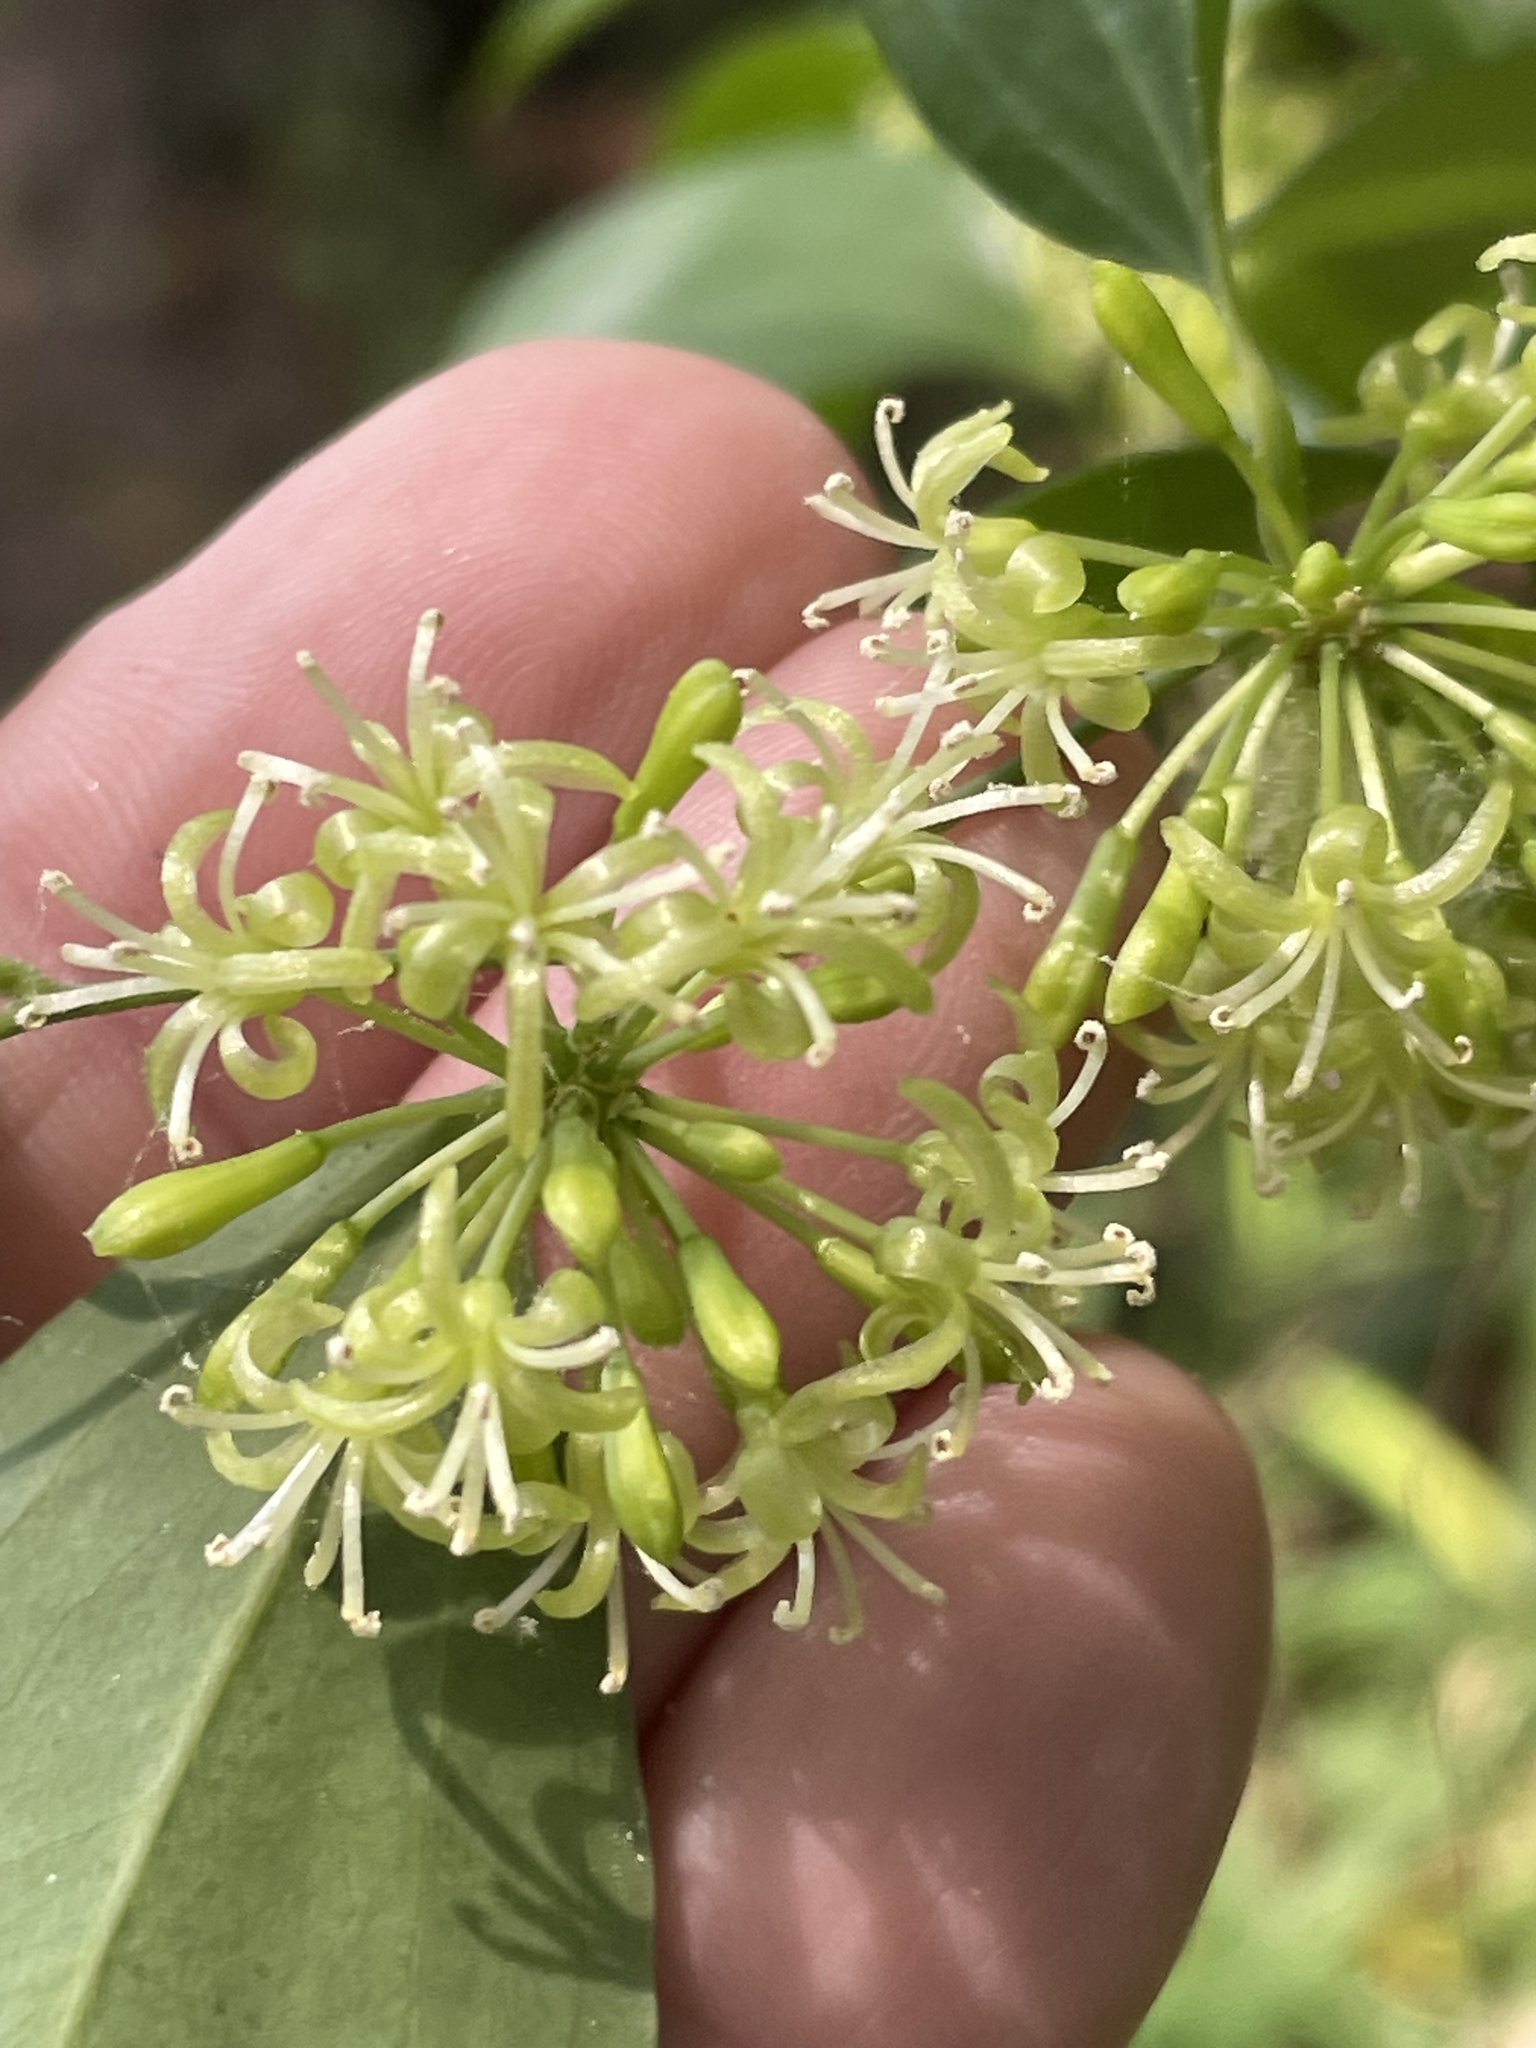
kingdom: Plantae
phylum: Tracheophyta
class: Liliopsida
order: Liliales
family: Smilacaceae
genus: Smilax
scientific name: Smilax maritima
